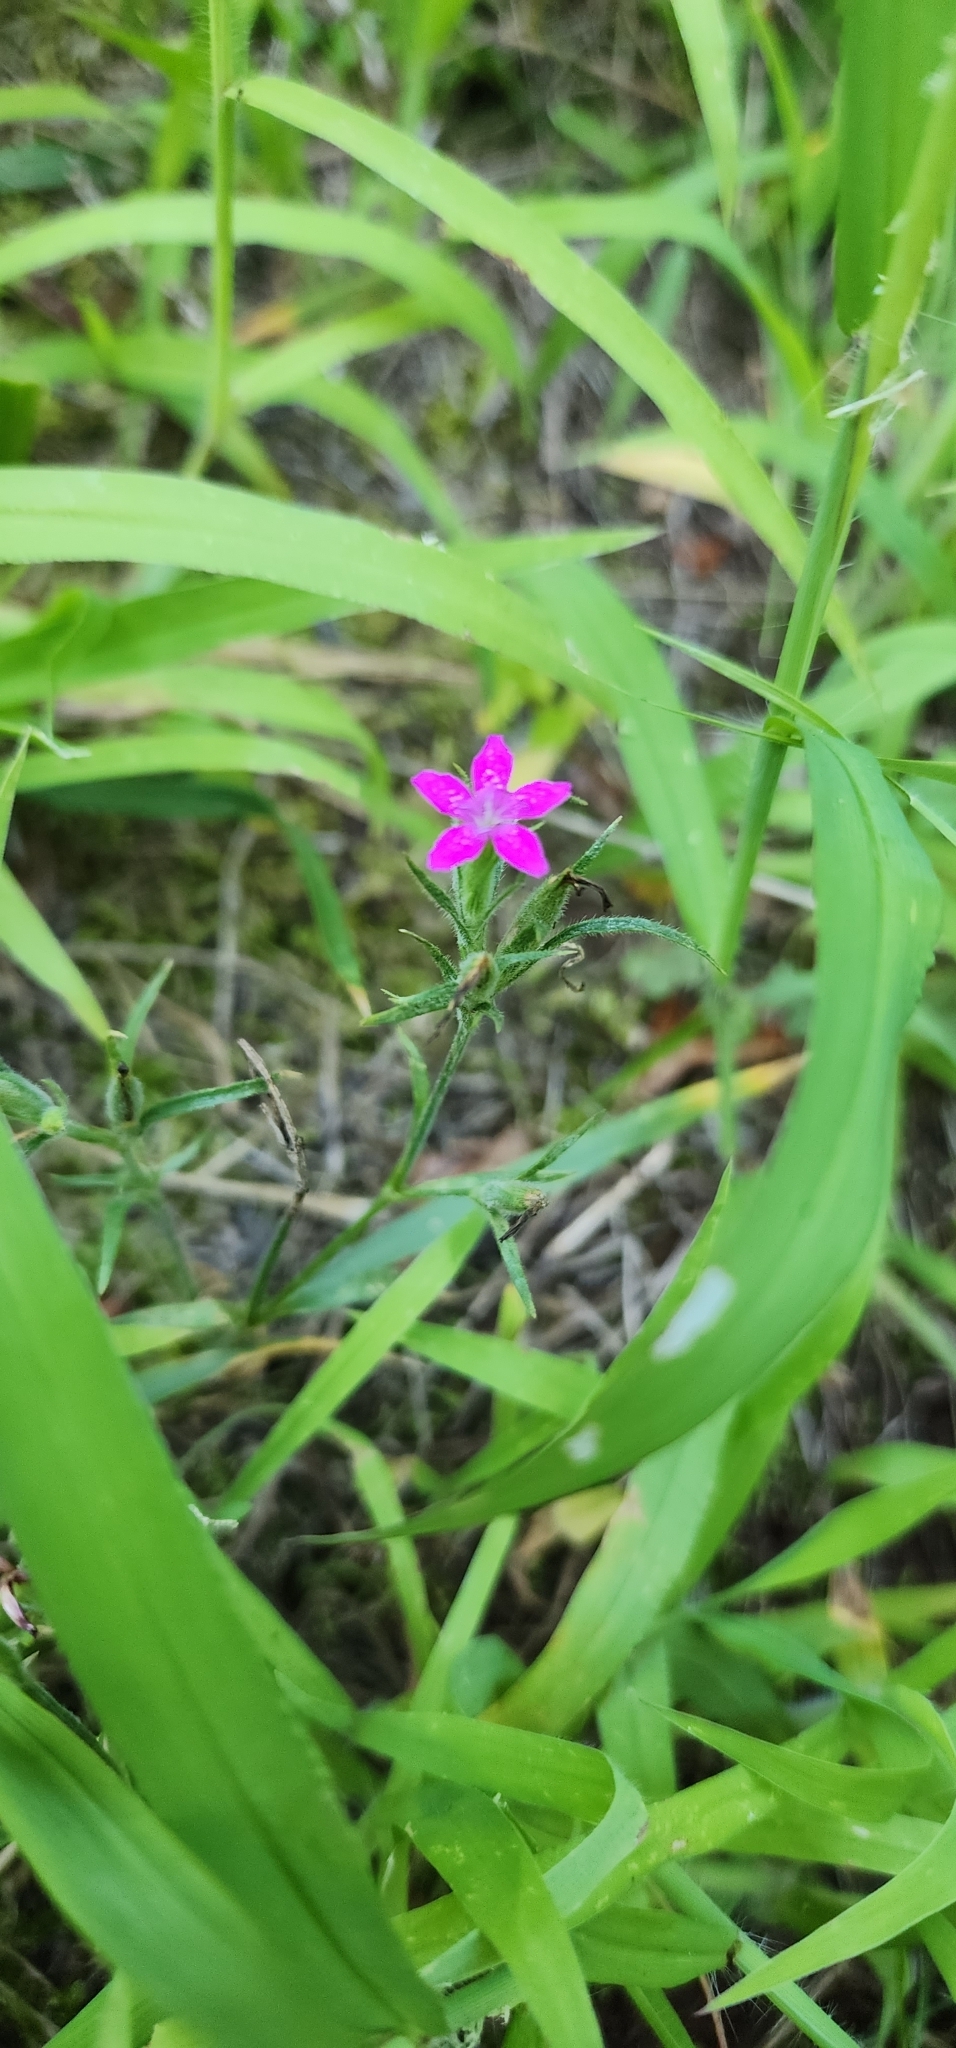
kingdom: Plantae
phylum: Tracheophyta
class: Magnoliopsida
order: Caryophyllales
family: Caryophyllaceae
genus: Dianthus
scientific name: Dianthus armeria
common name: Deptford pink
